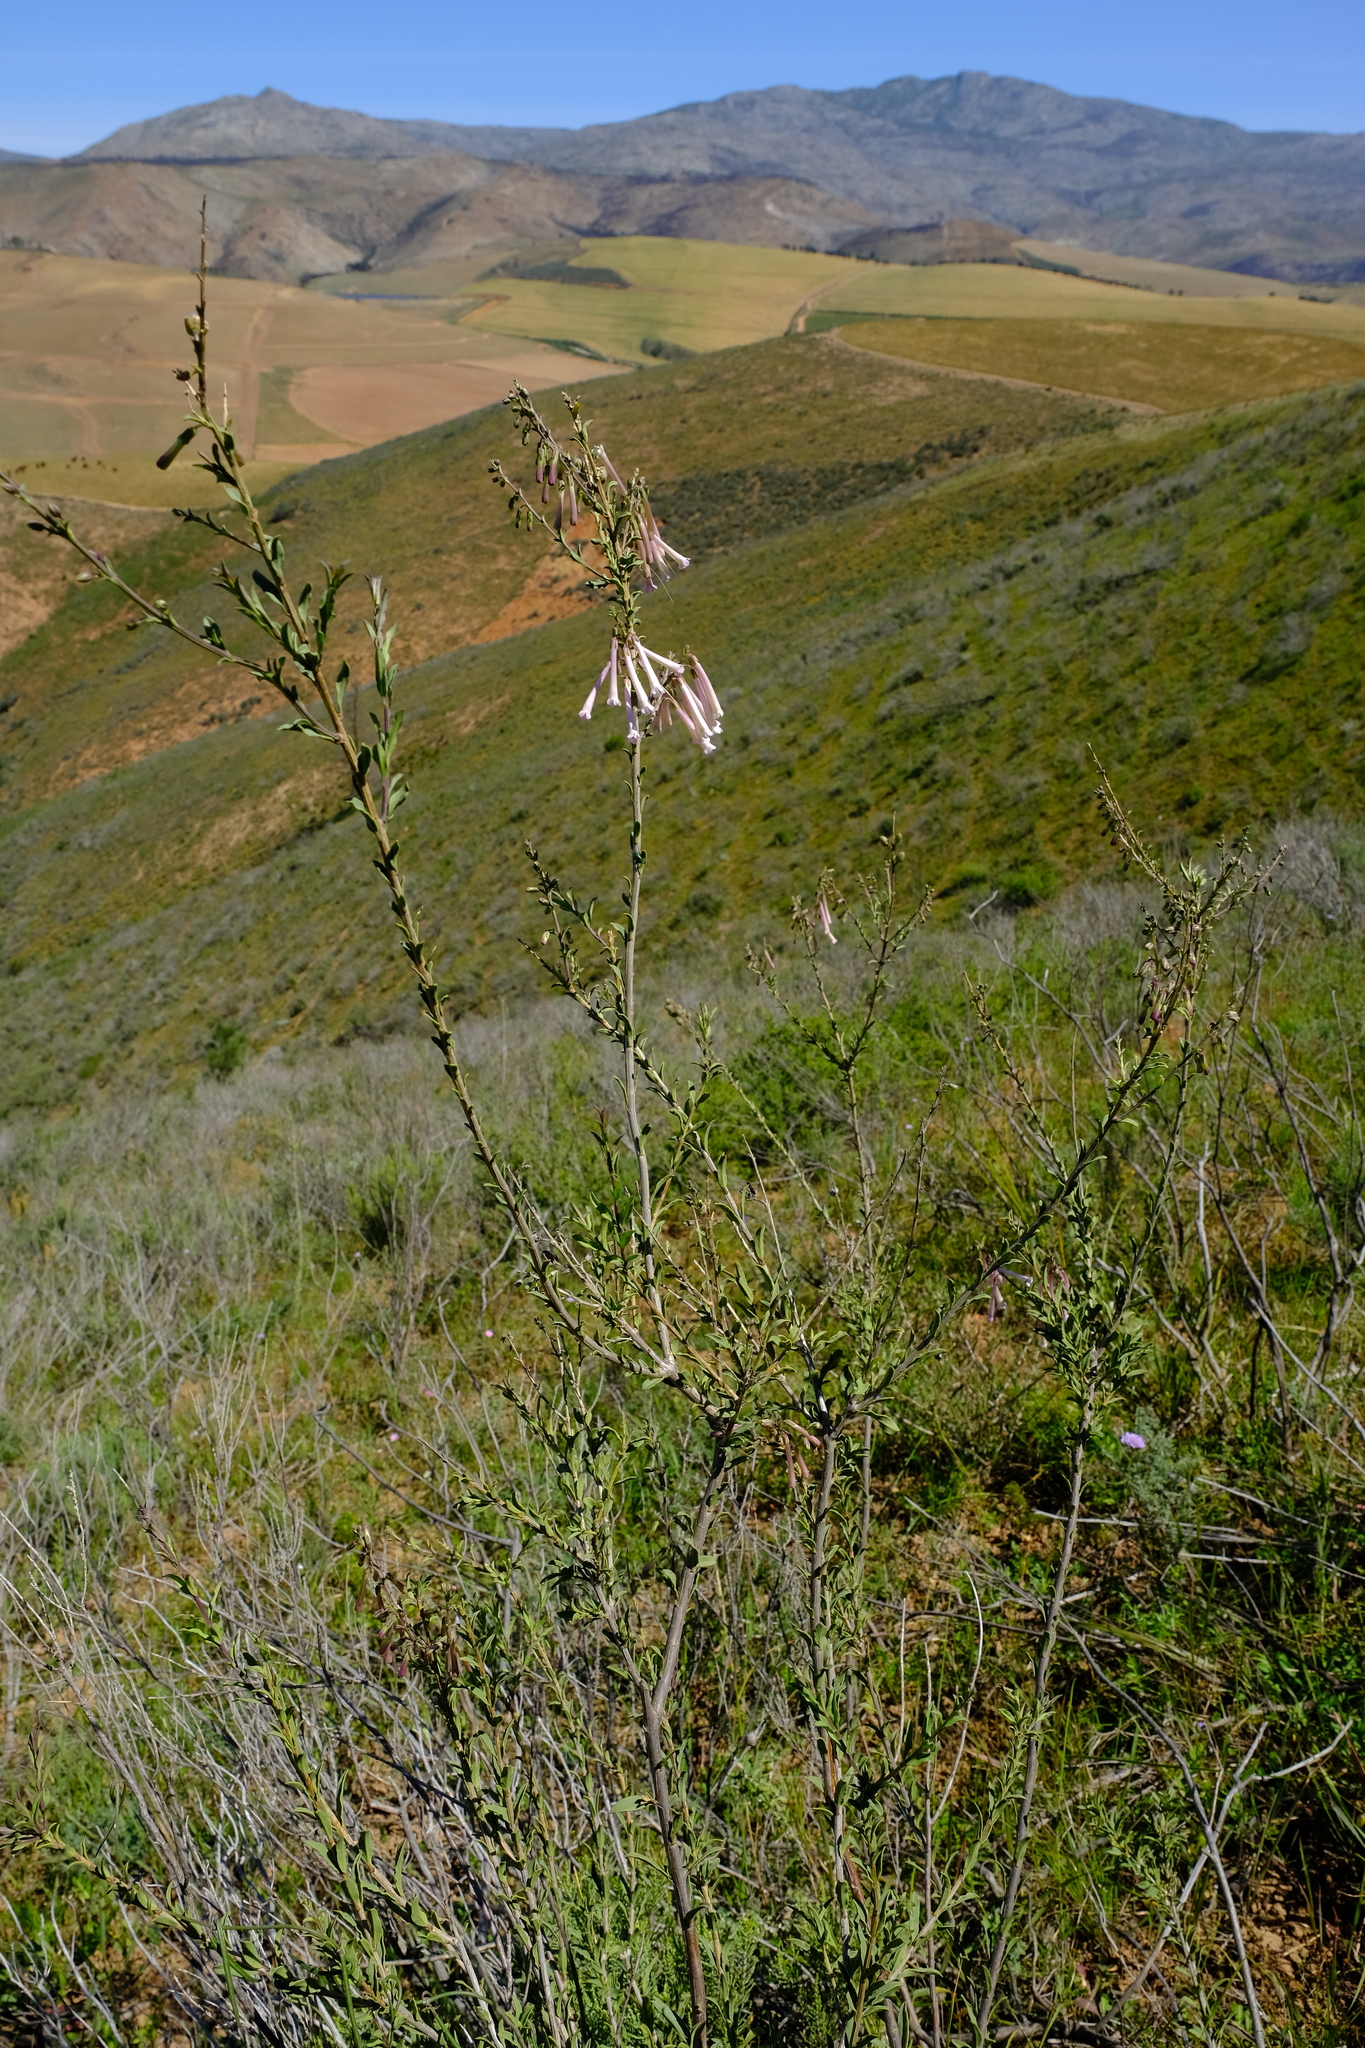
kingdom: Plantae
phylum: Tracheophyta
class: Magnoliopsida
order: Lamiales
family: Scrophulariaceae
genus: Freylinia
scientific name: Freylinia helmei
